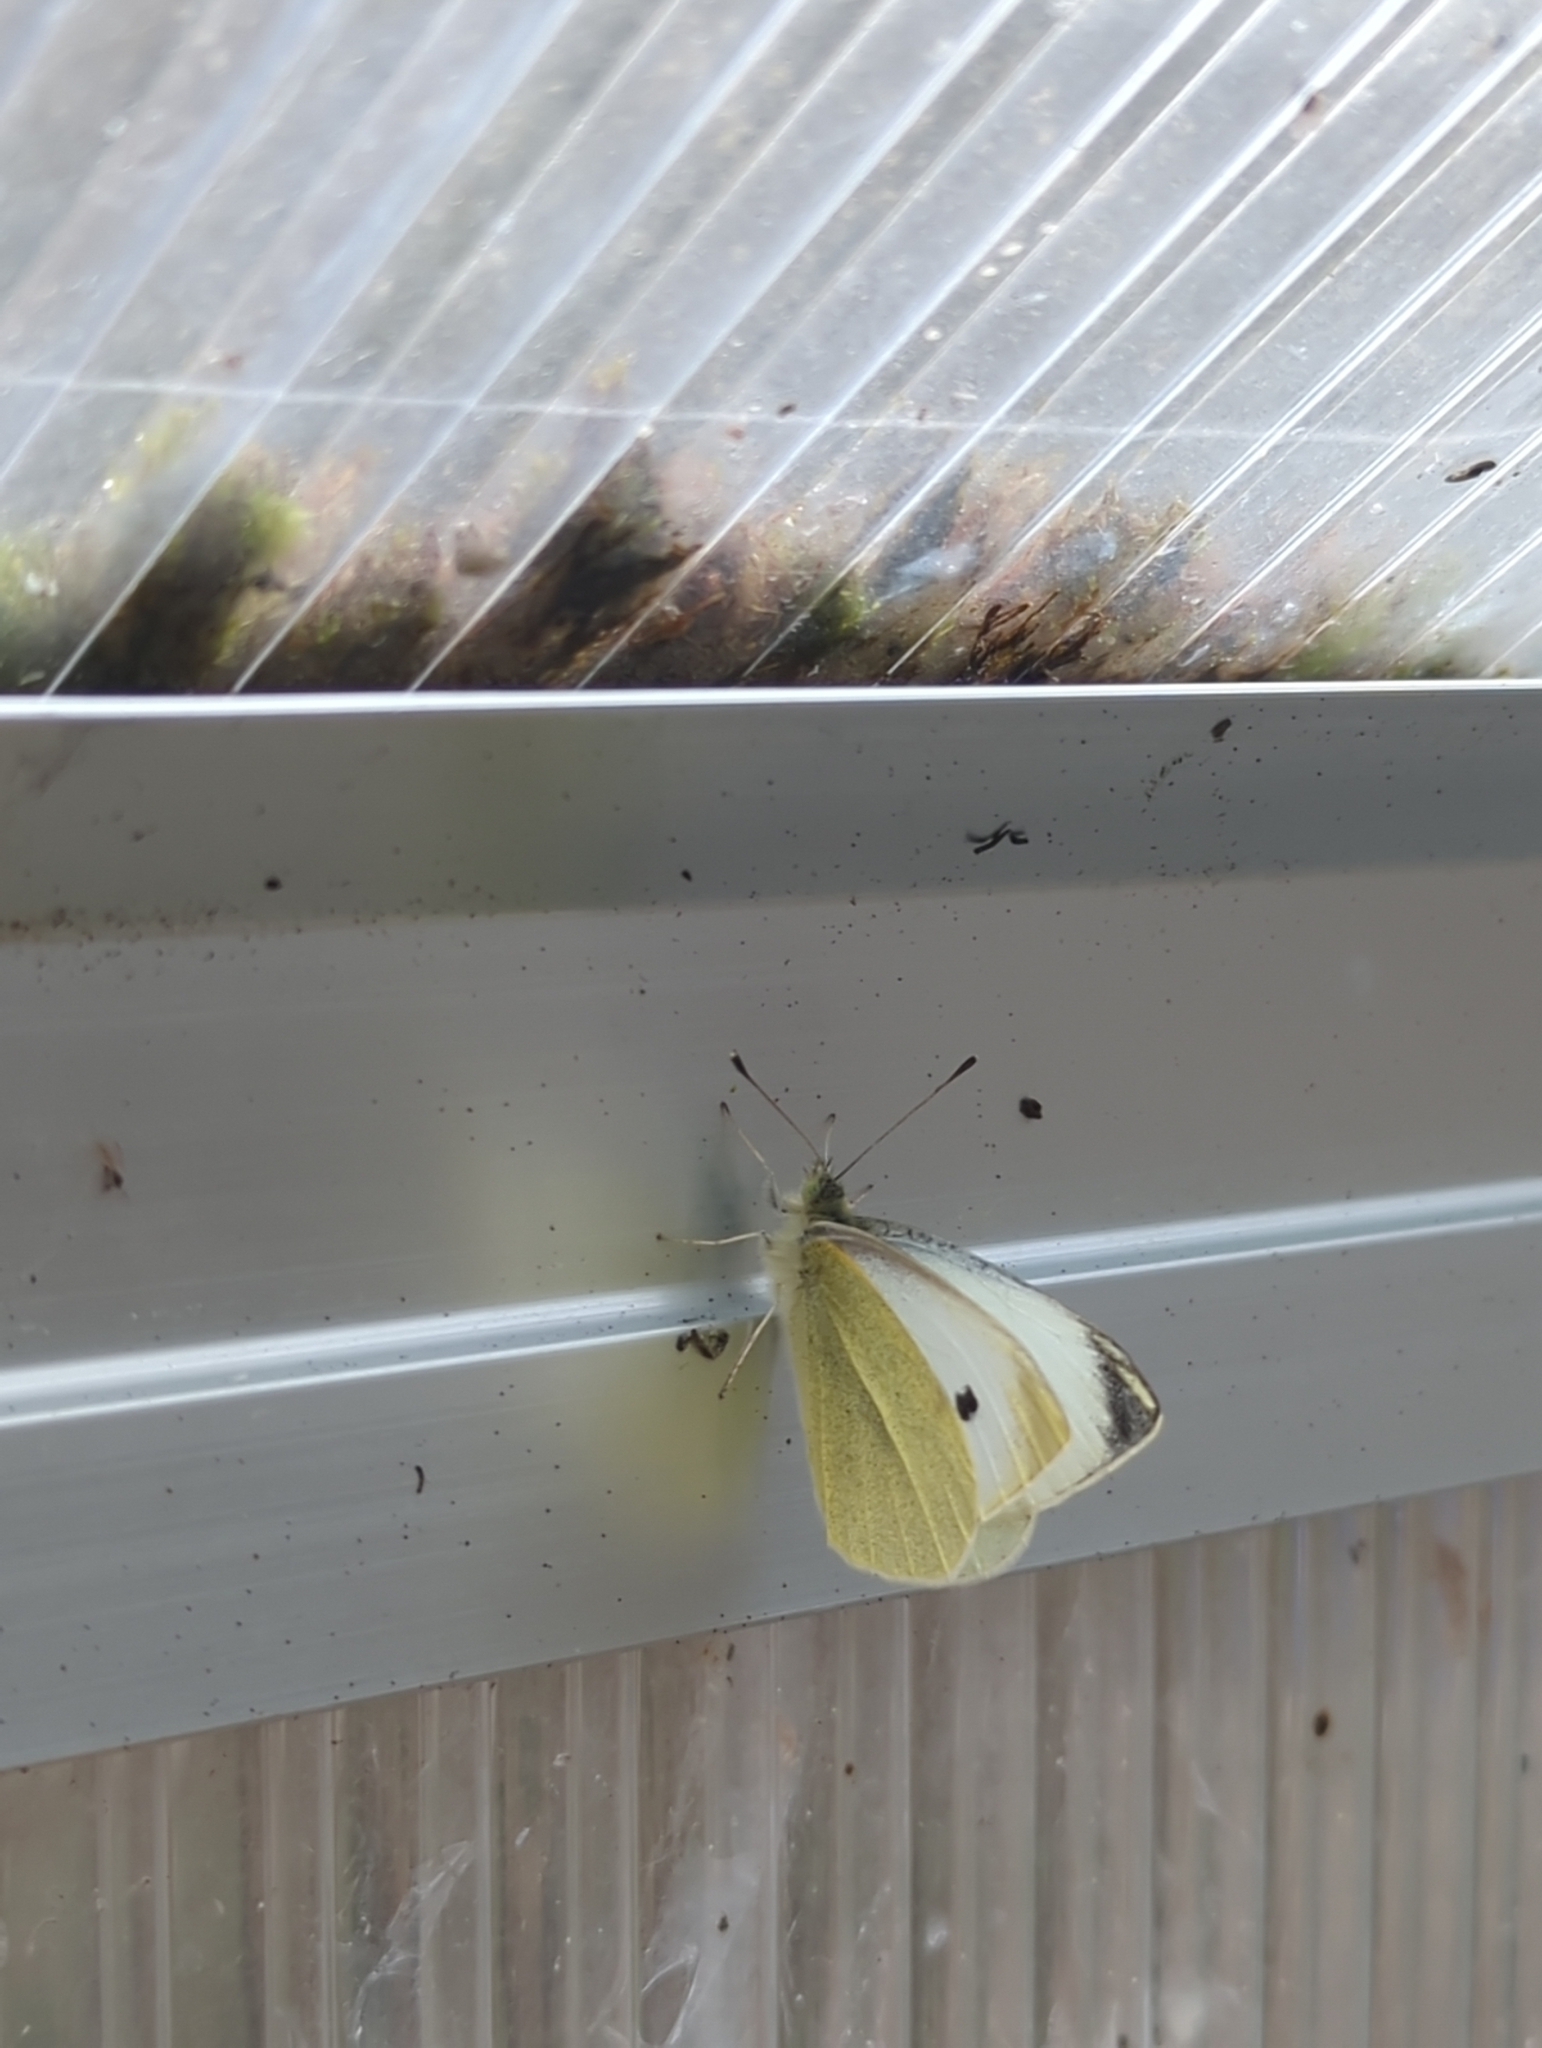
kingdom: Animalia
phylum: Arthropoda
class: Insecta
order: Lepidoptera
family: Pieridae
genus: Pieris
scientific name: Pieris rapae
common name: Small white
